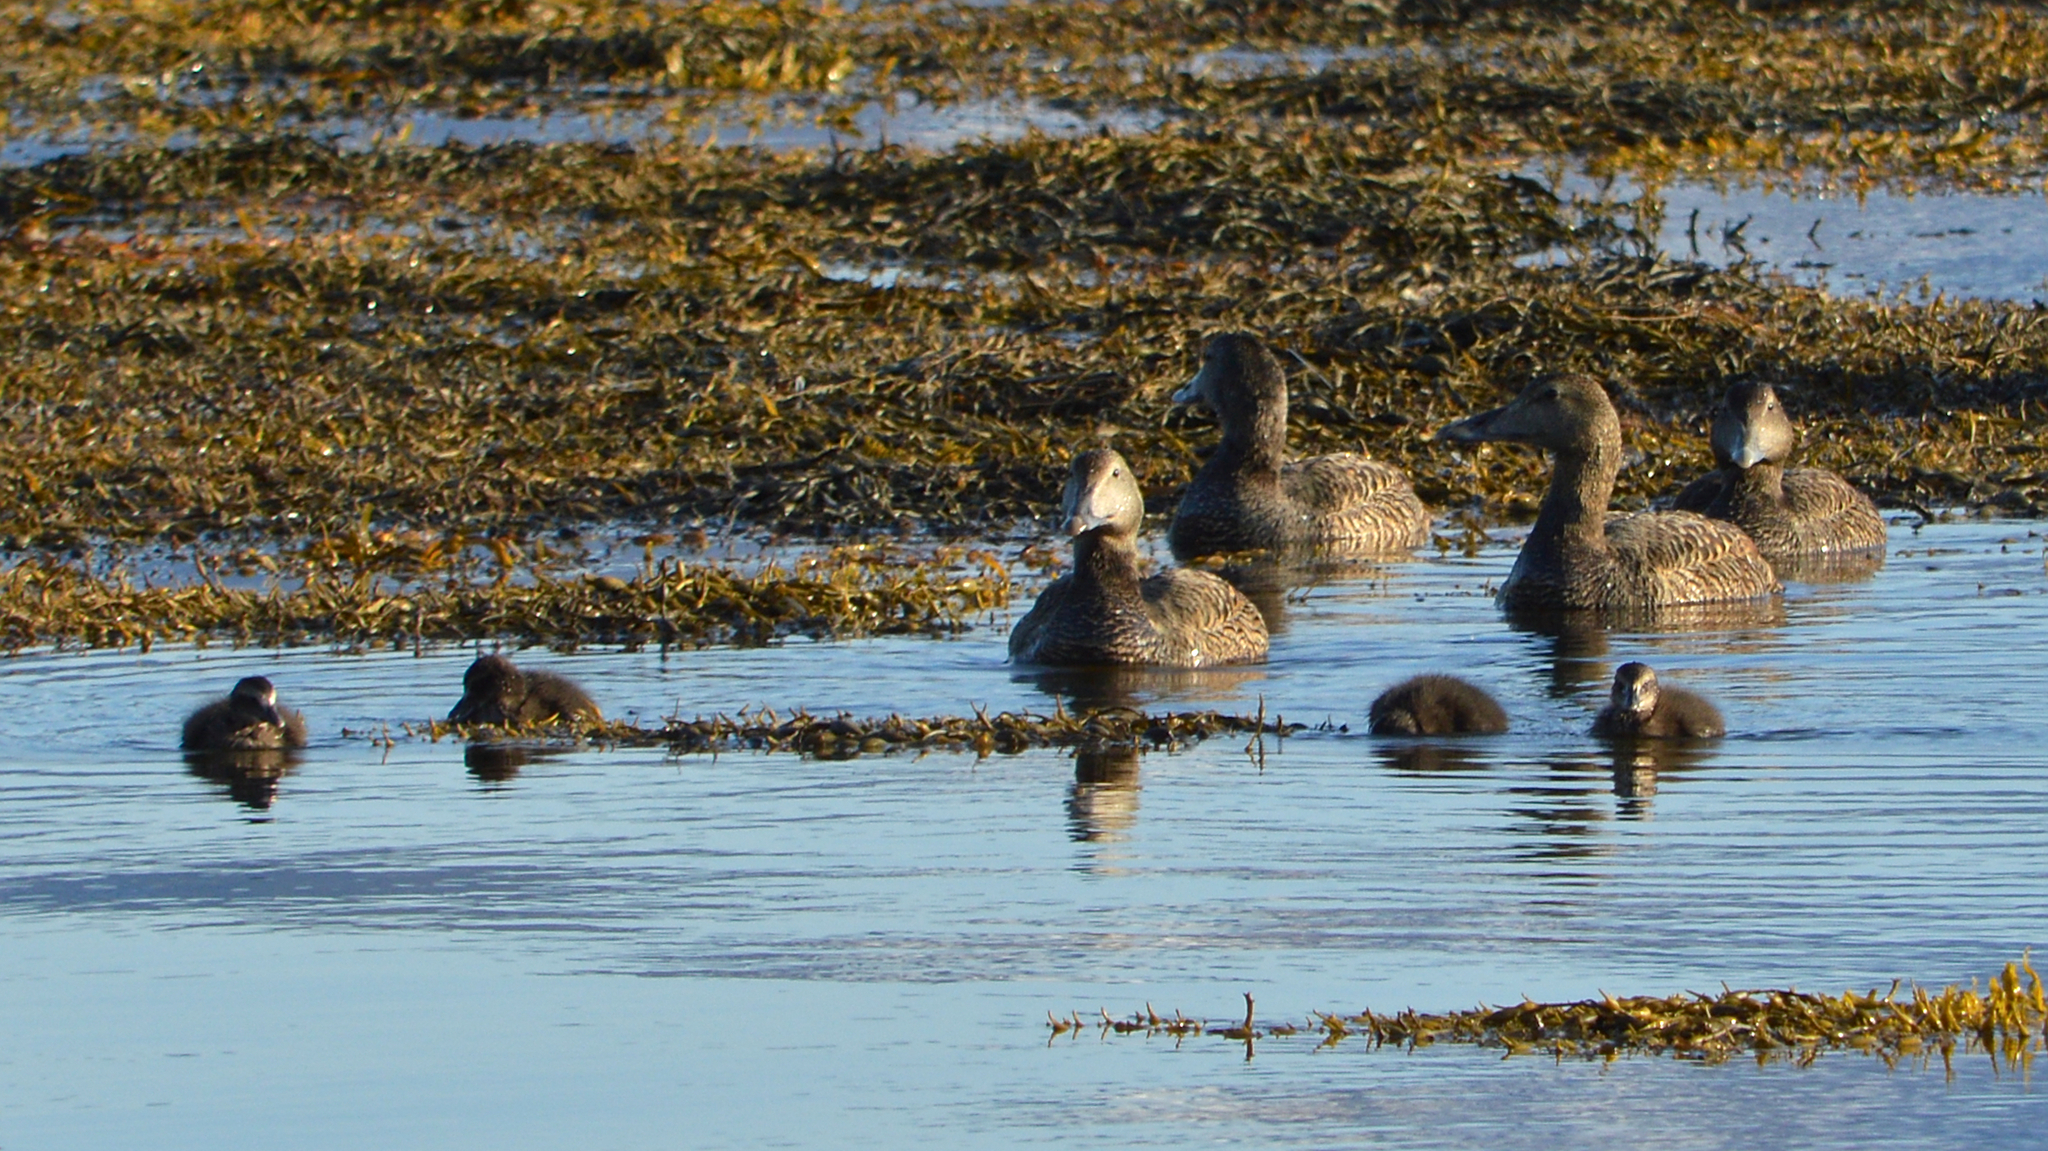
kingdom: Animalia
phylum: Chordata
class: Aves
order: Anseriformes
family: Anatidae
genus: Somateria
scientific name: Somateria mollissima
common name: Common eider
